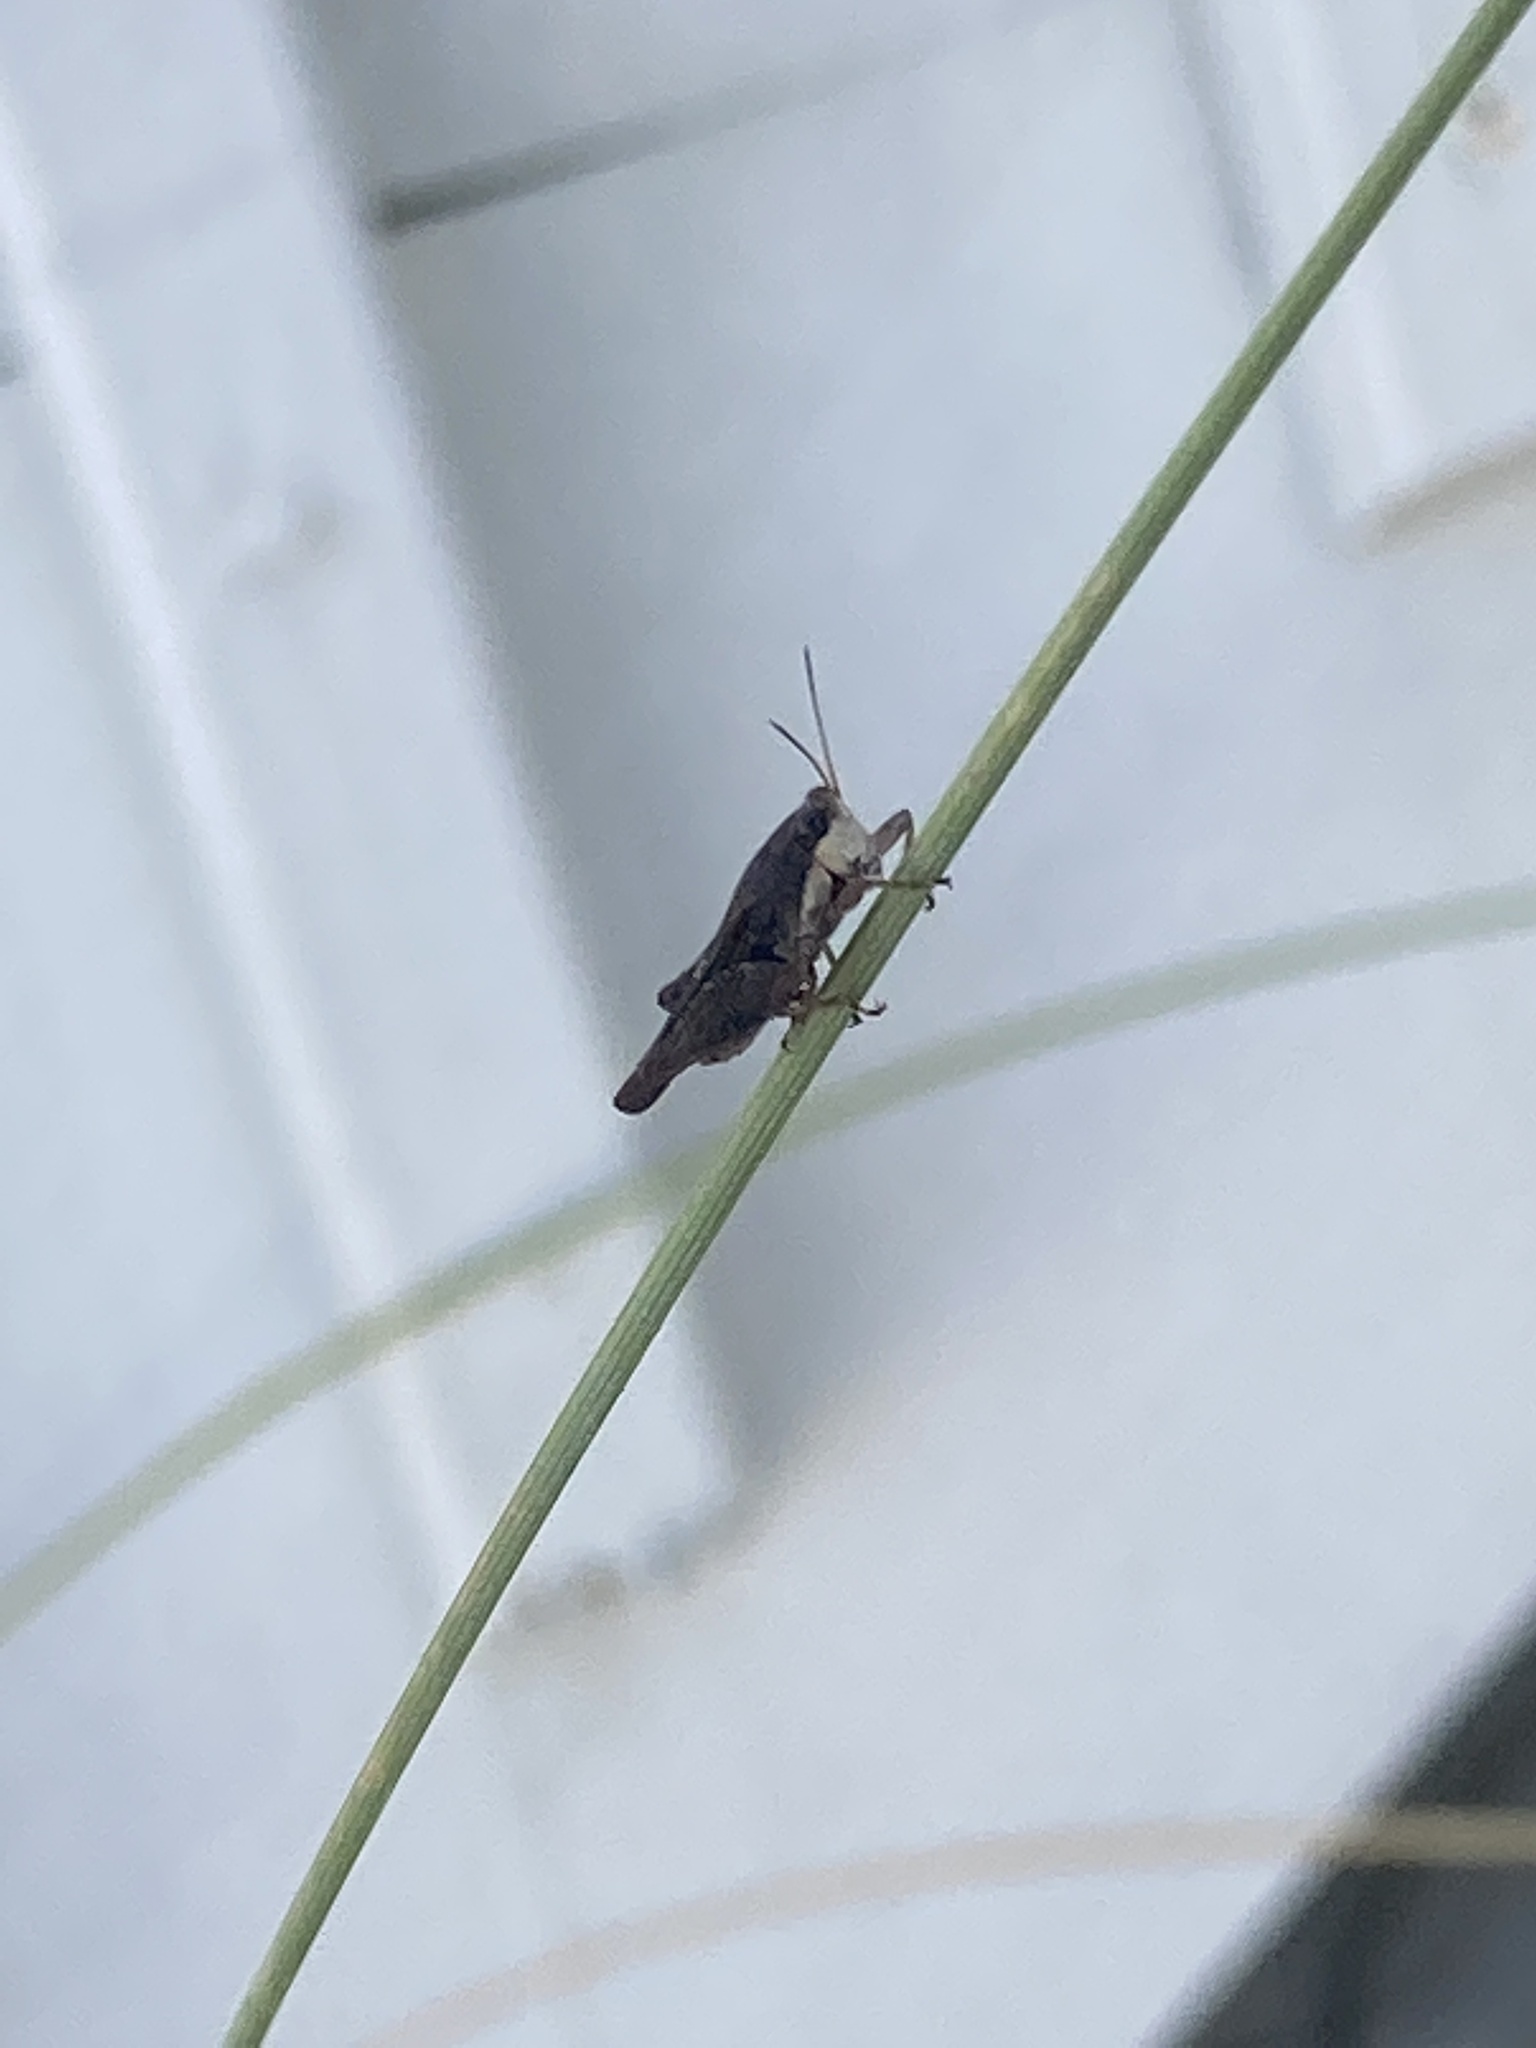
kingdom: Animalia
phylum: Arthropoda
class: Insecta
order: Orthoptera
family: Tetrigidae
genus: Tettigidea
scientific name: Tettigidea laterale
